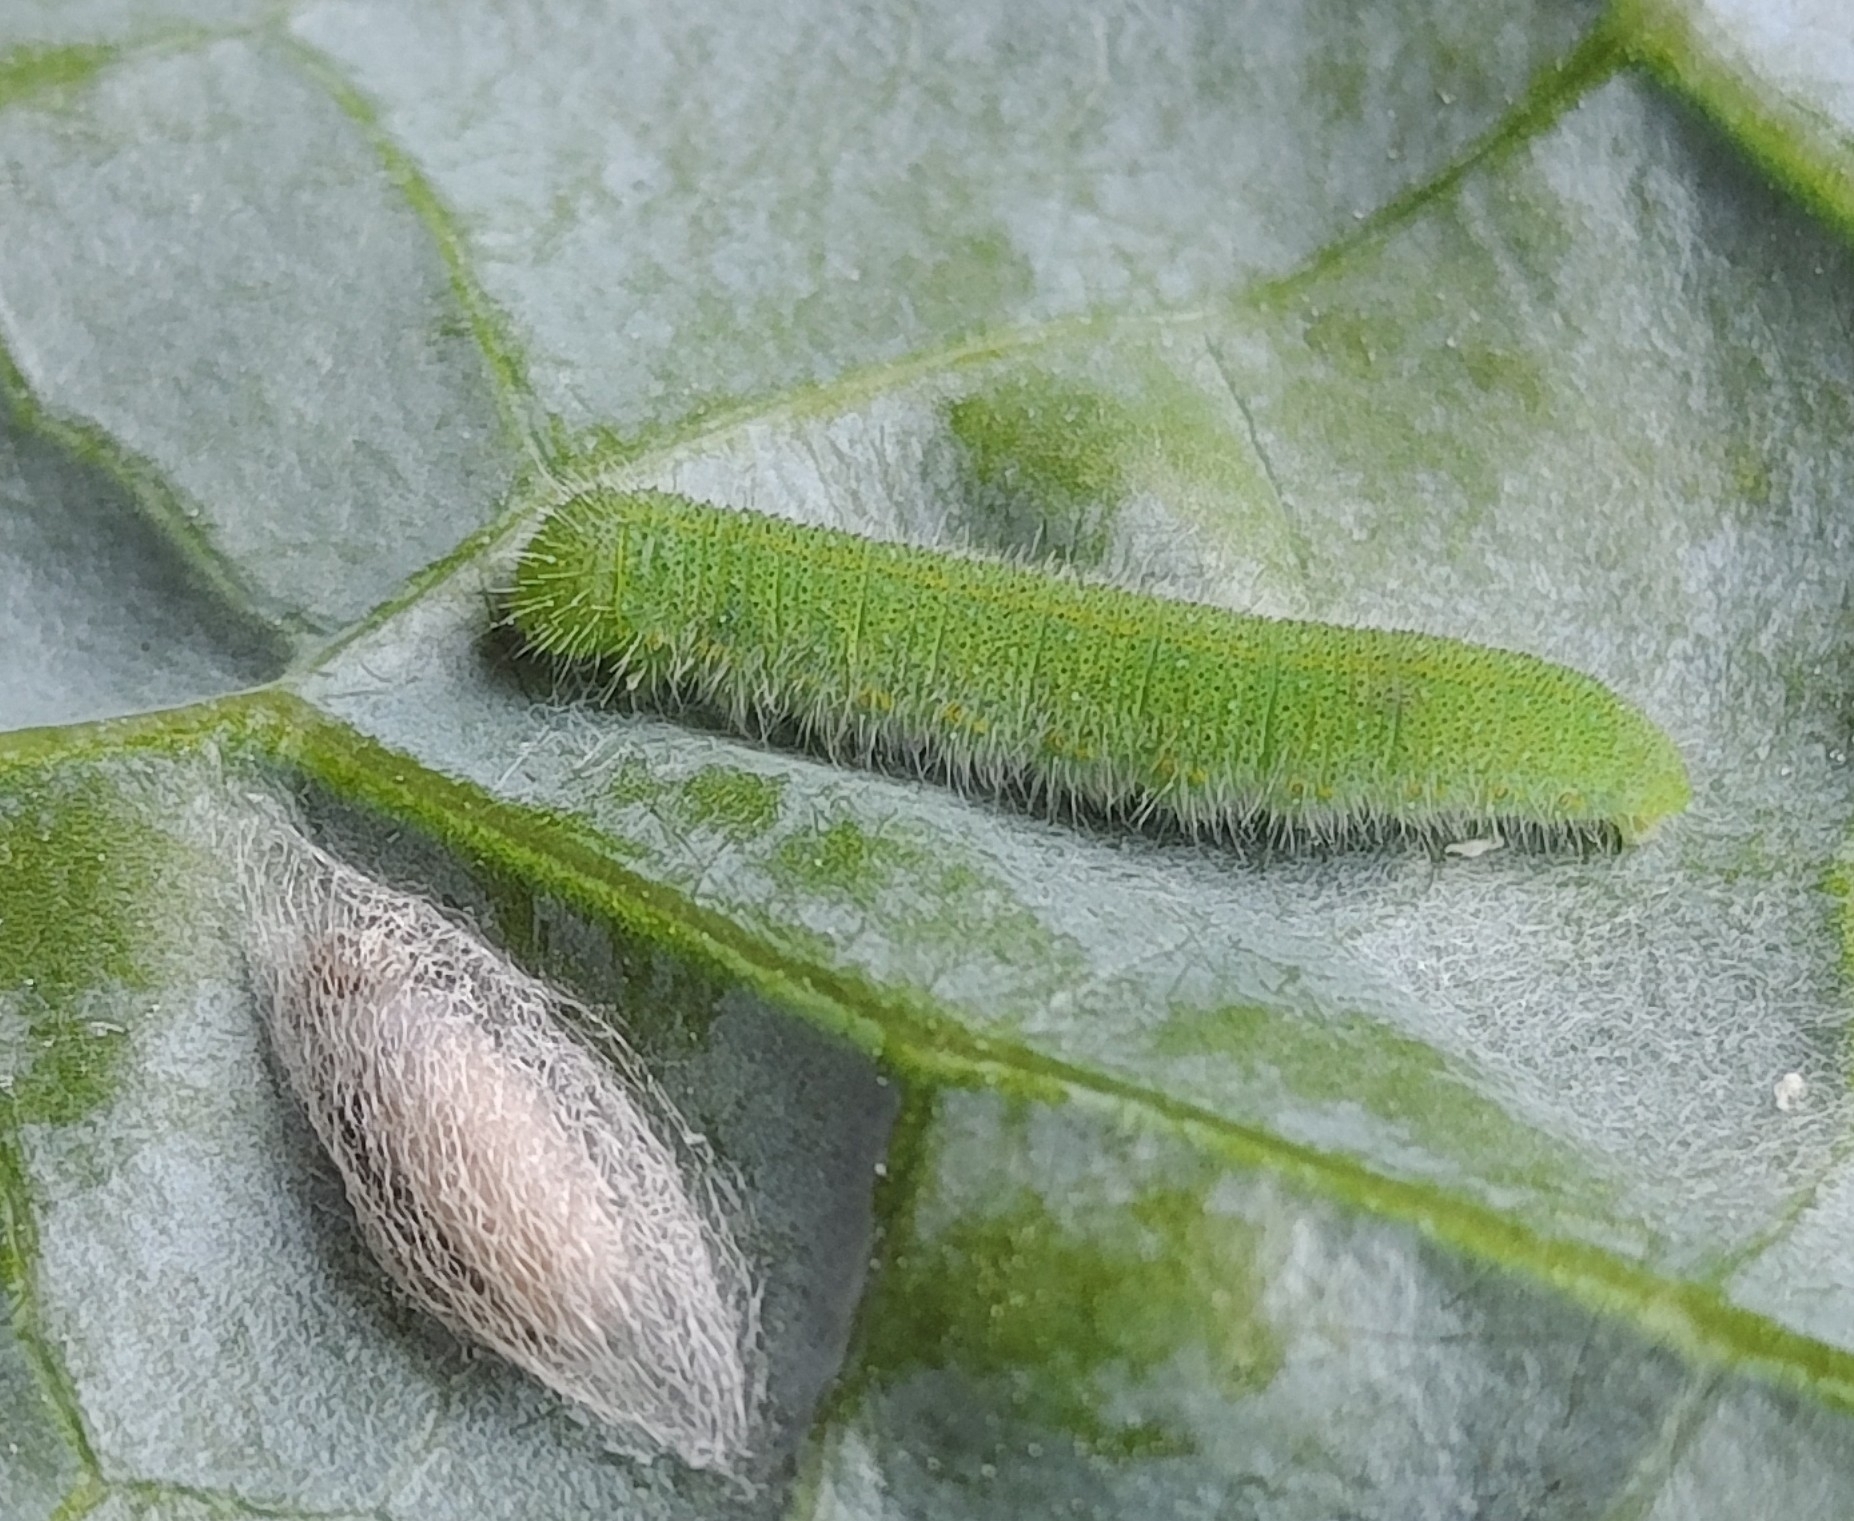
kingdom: Animalia
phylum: Arthropoda
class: Insecta
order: Lepidoptera
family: Pieridae
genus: Pieris
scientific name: Pieris rapae
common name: Small white
